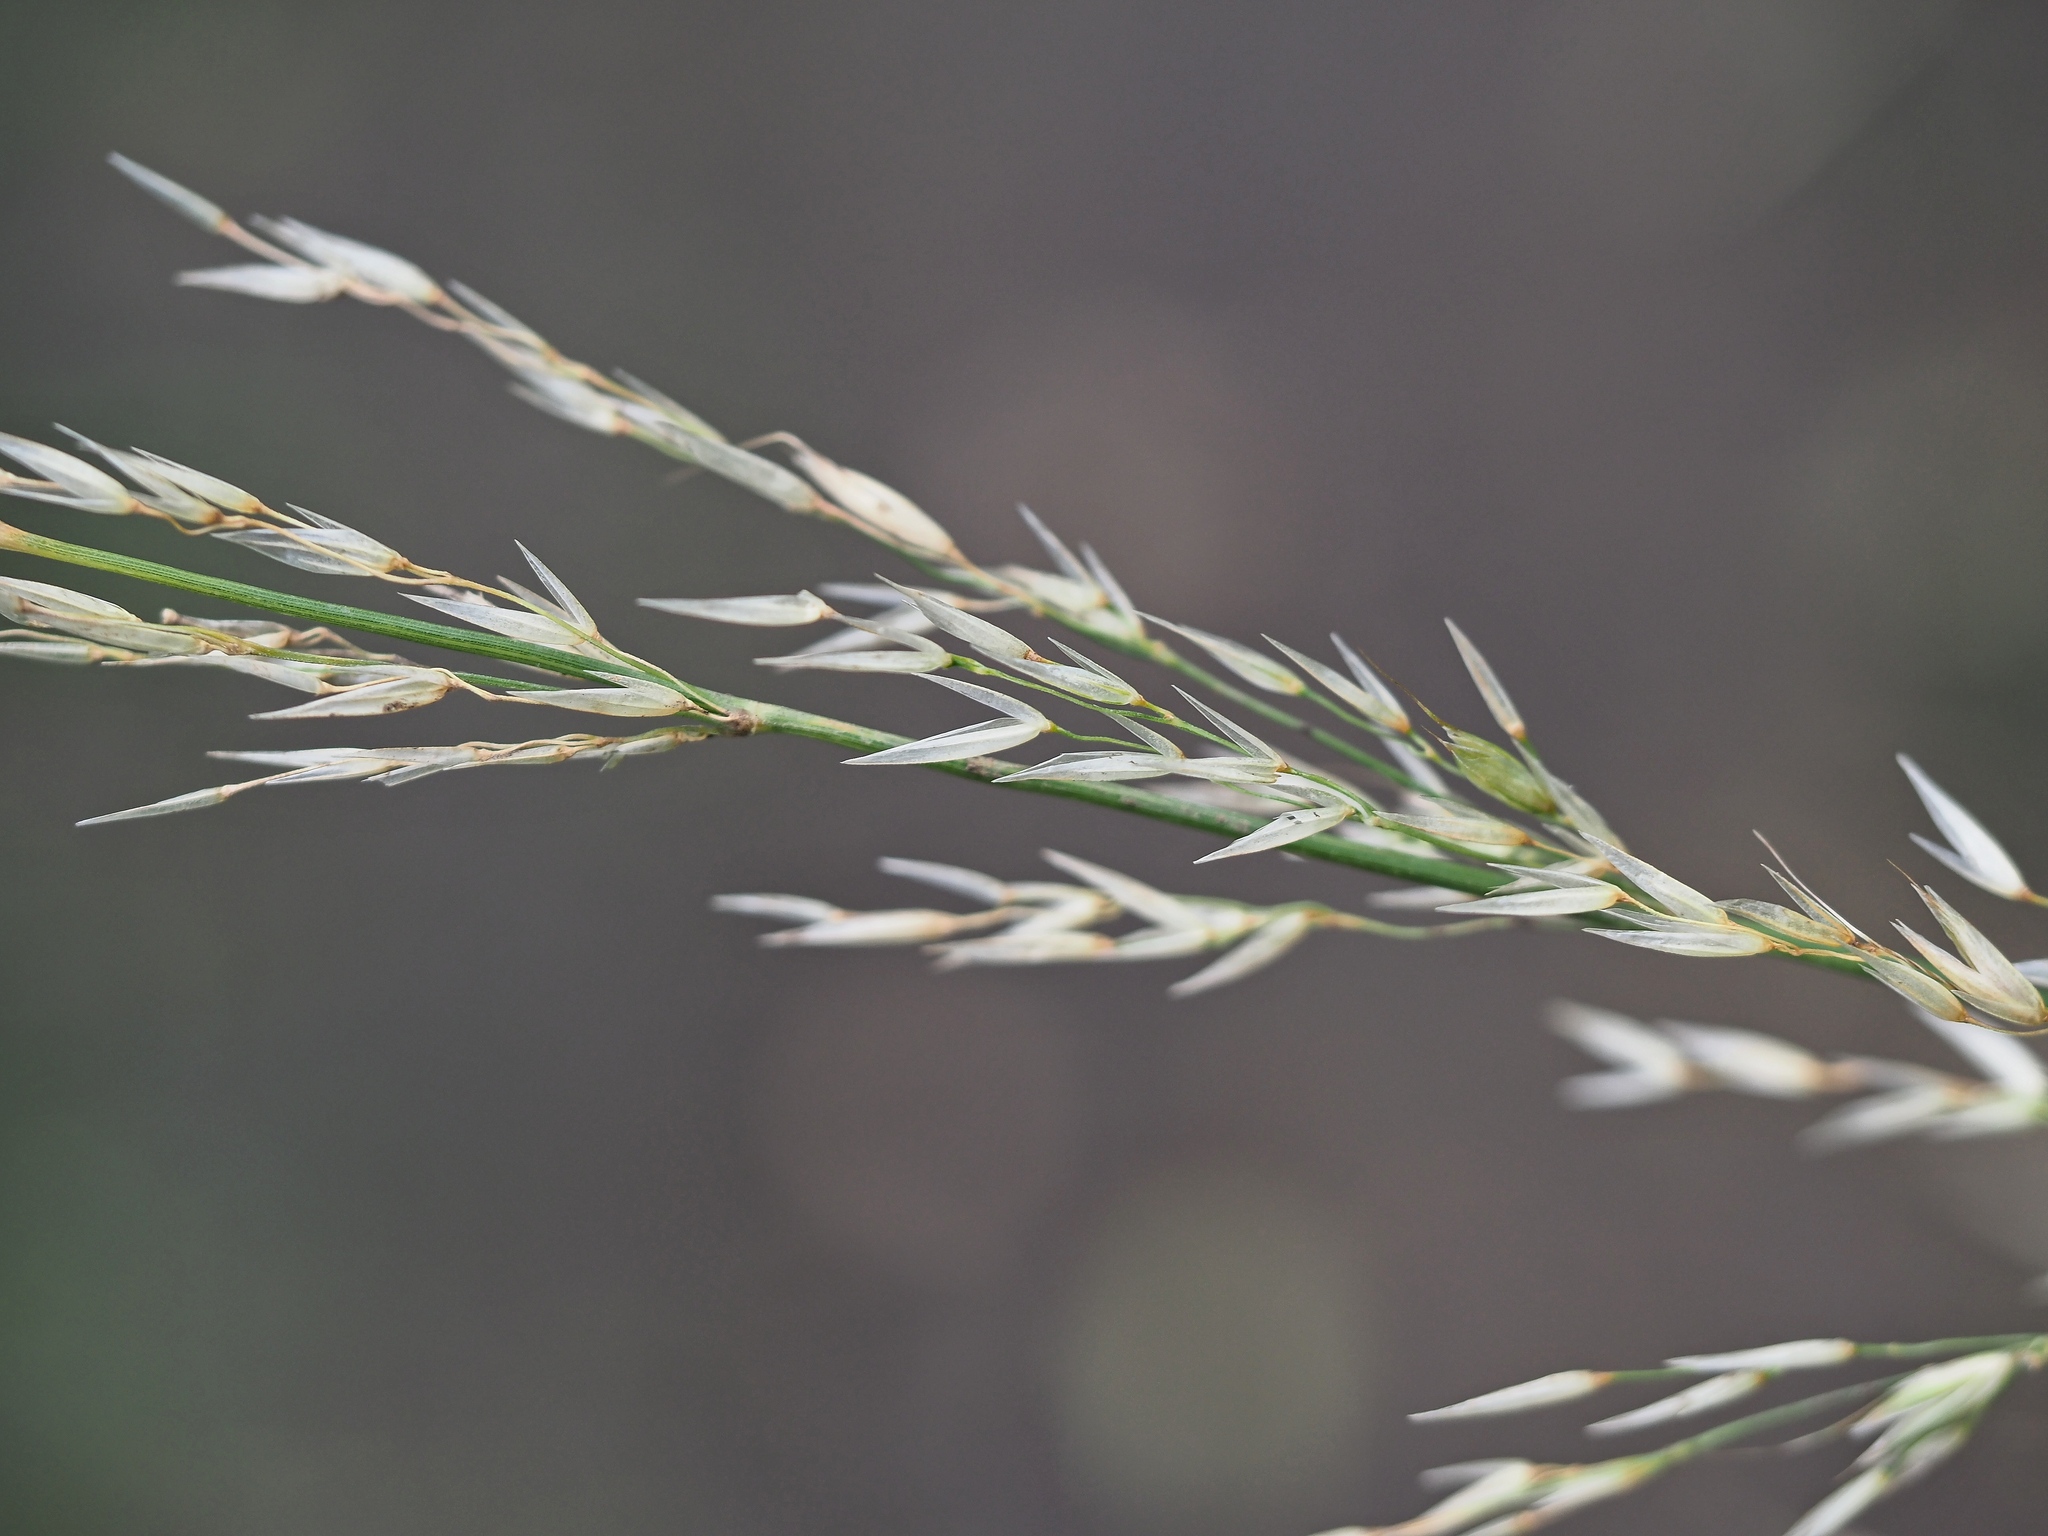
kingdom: Plantae
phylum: Tracheophyta
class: Liliopsida
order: Poales
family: Poaceae
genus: Arrhenatherum
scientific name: Arrhenatherum elatius
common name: Tall oatgrass
